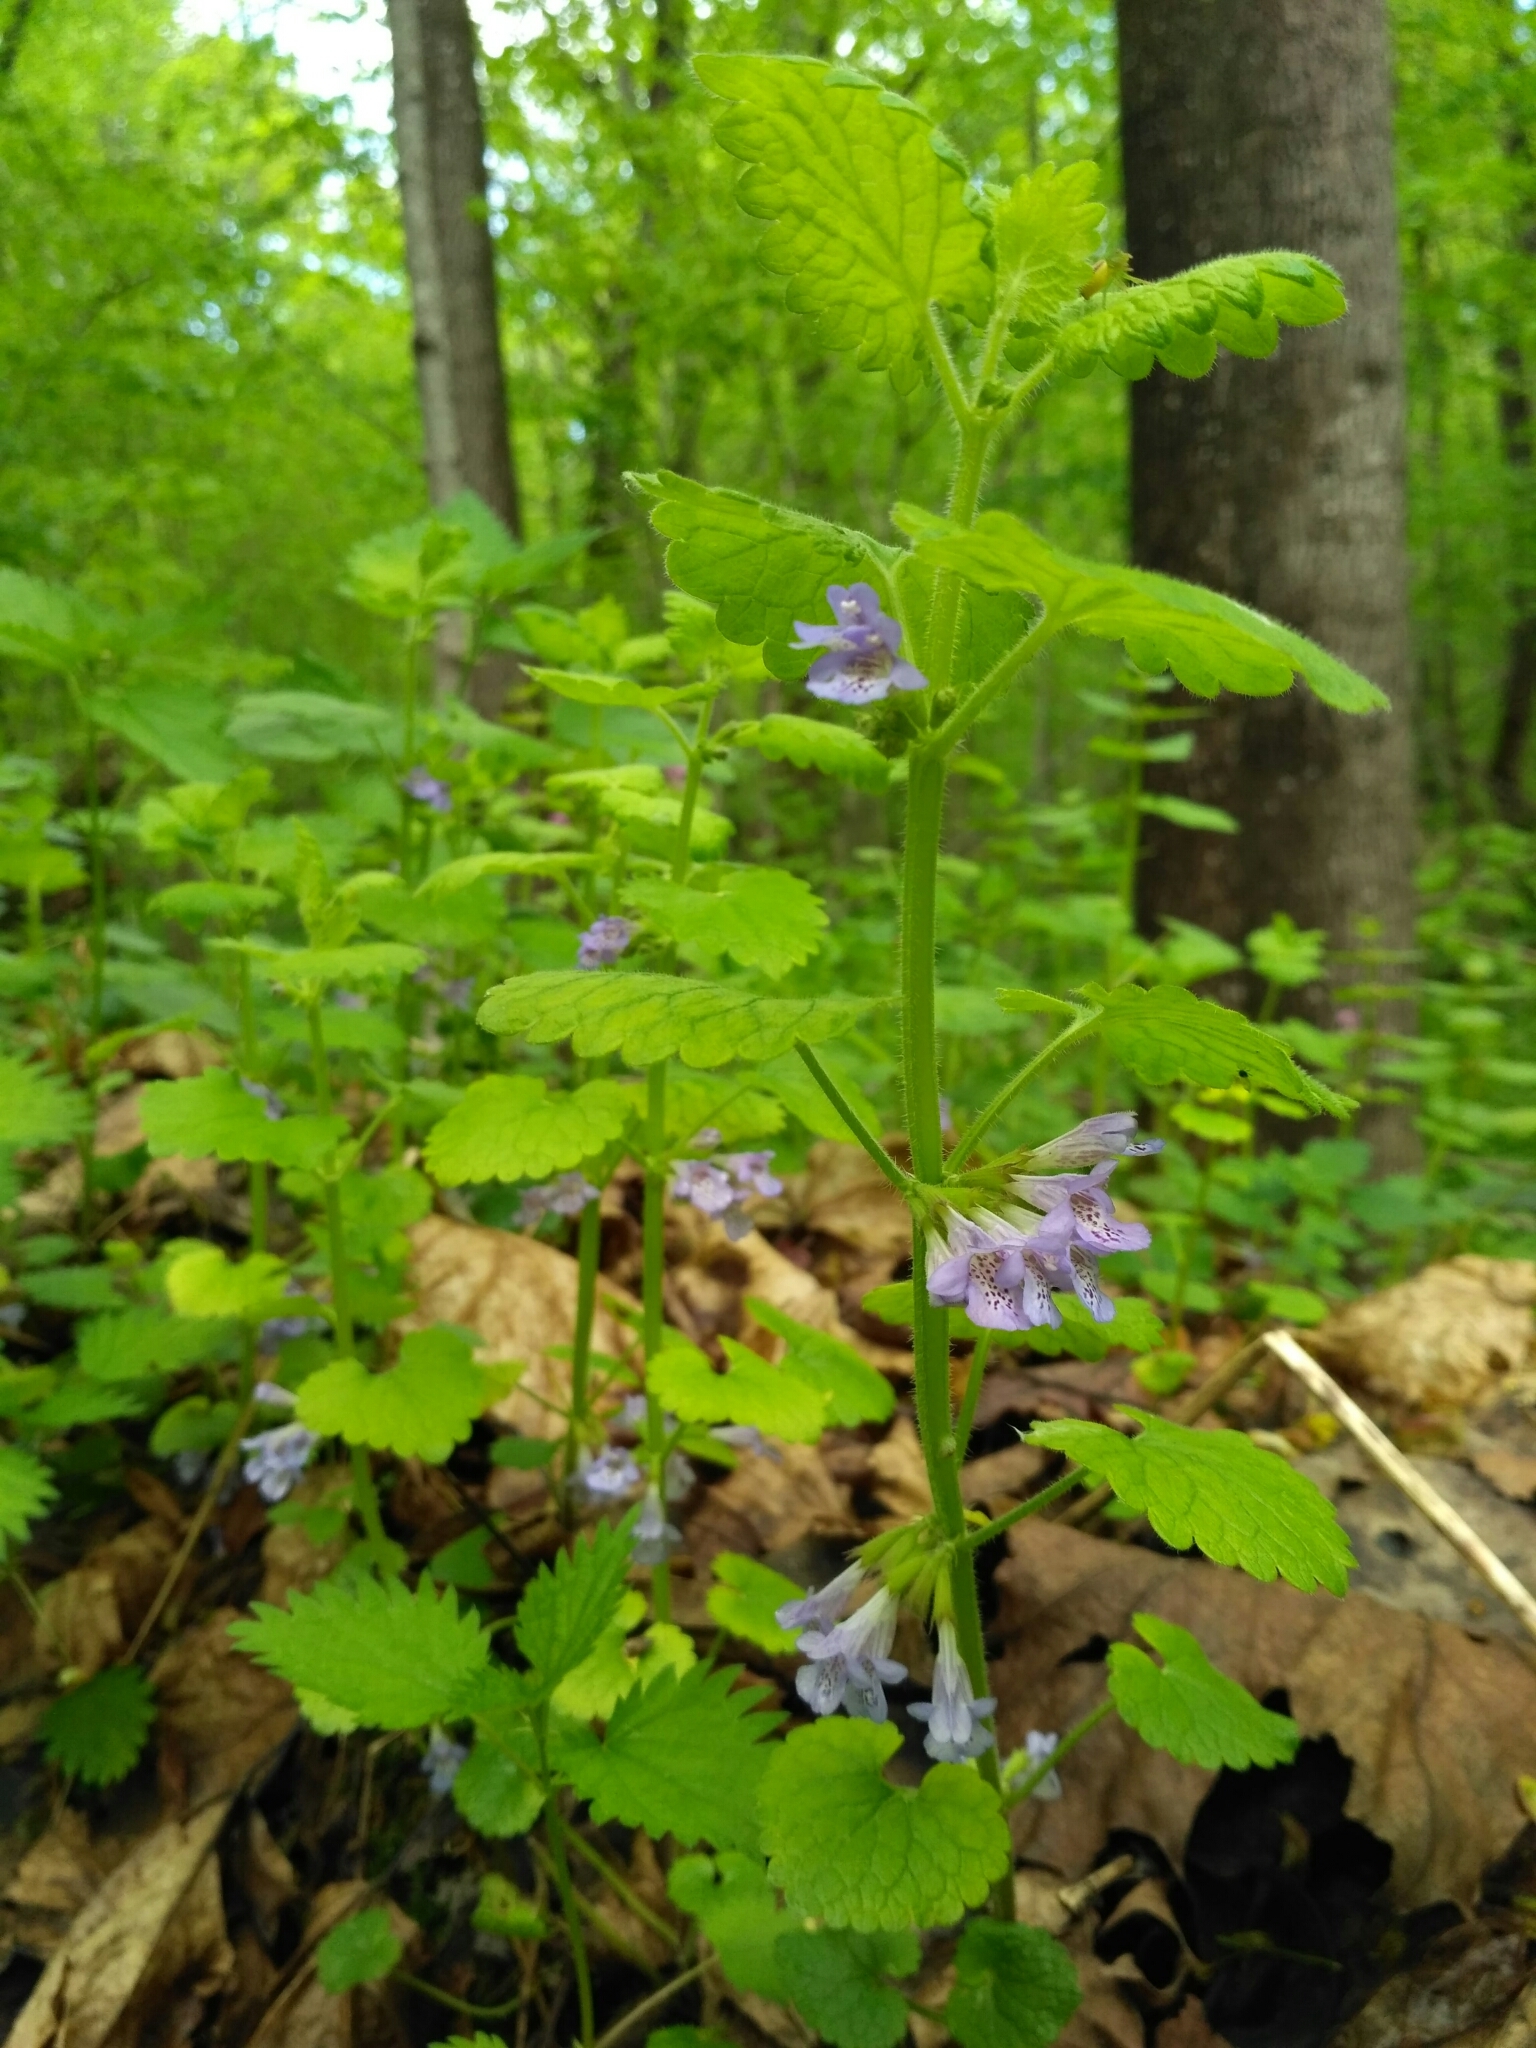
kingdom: Plantae
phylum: Tracheophyta
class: Magnoliopsida
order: Lamiales
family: Lamiaceae
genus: Glechoma
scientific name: Glechoma hederacea
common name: Ground ivy
